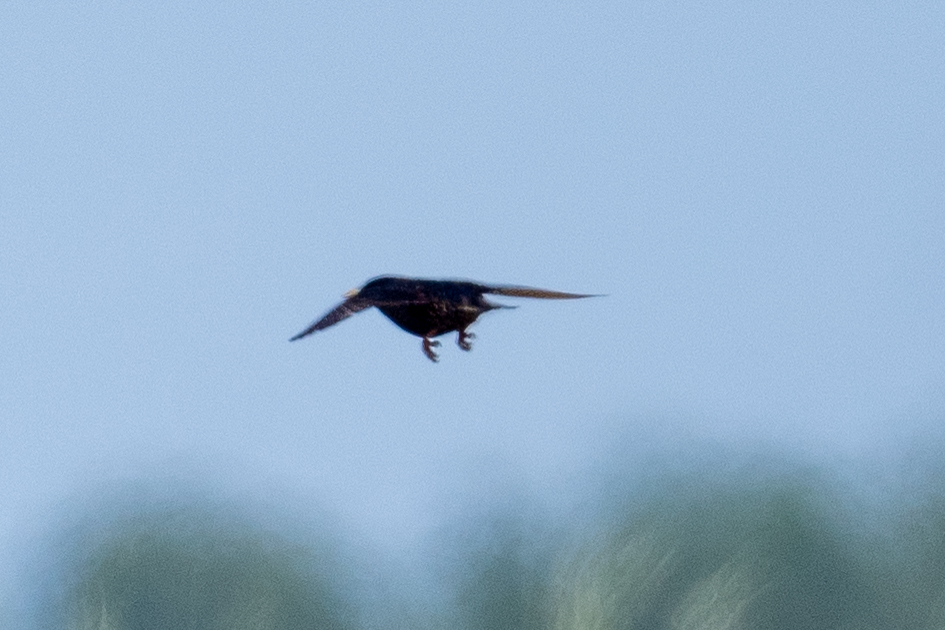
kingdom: Animalia
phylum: Chordata
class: Aves
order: Passeriformes
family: Sturnidae
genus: Sturnus
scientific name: Sturnus vulgaris
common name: Common starling
